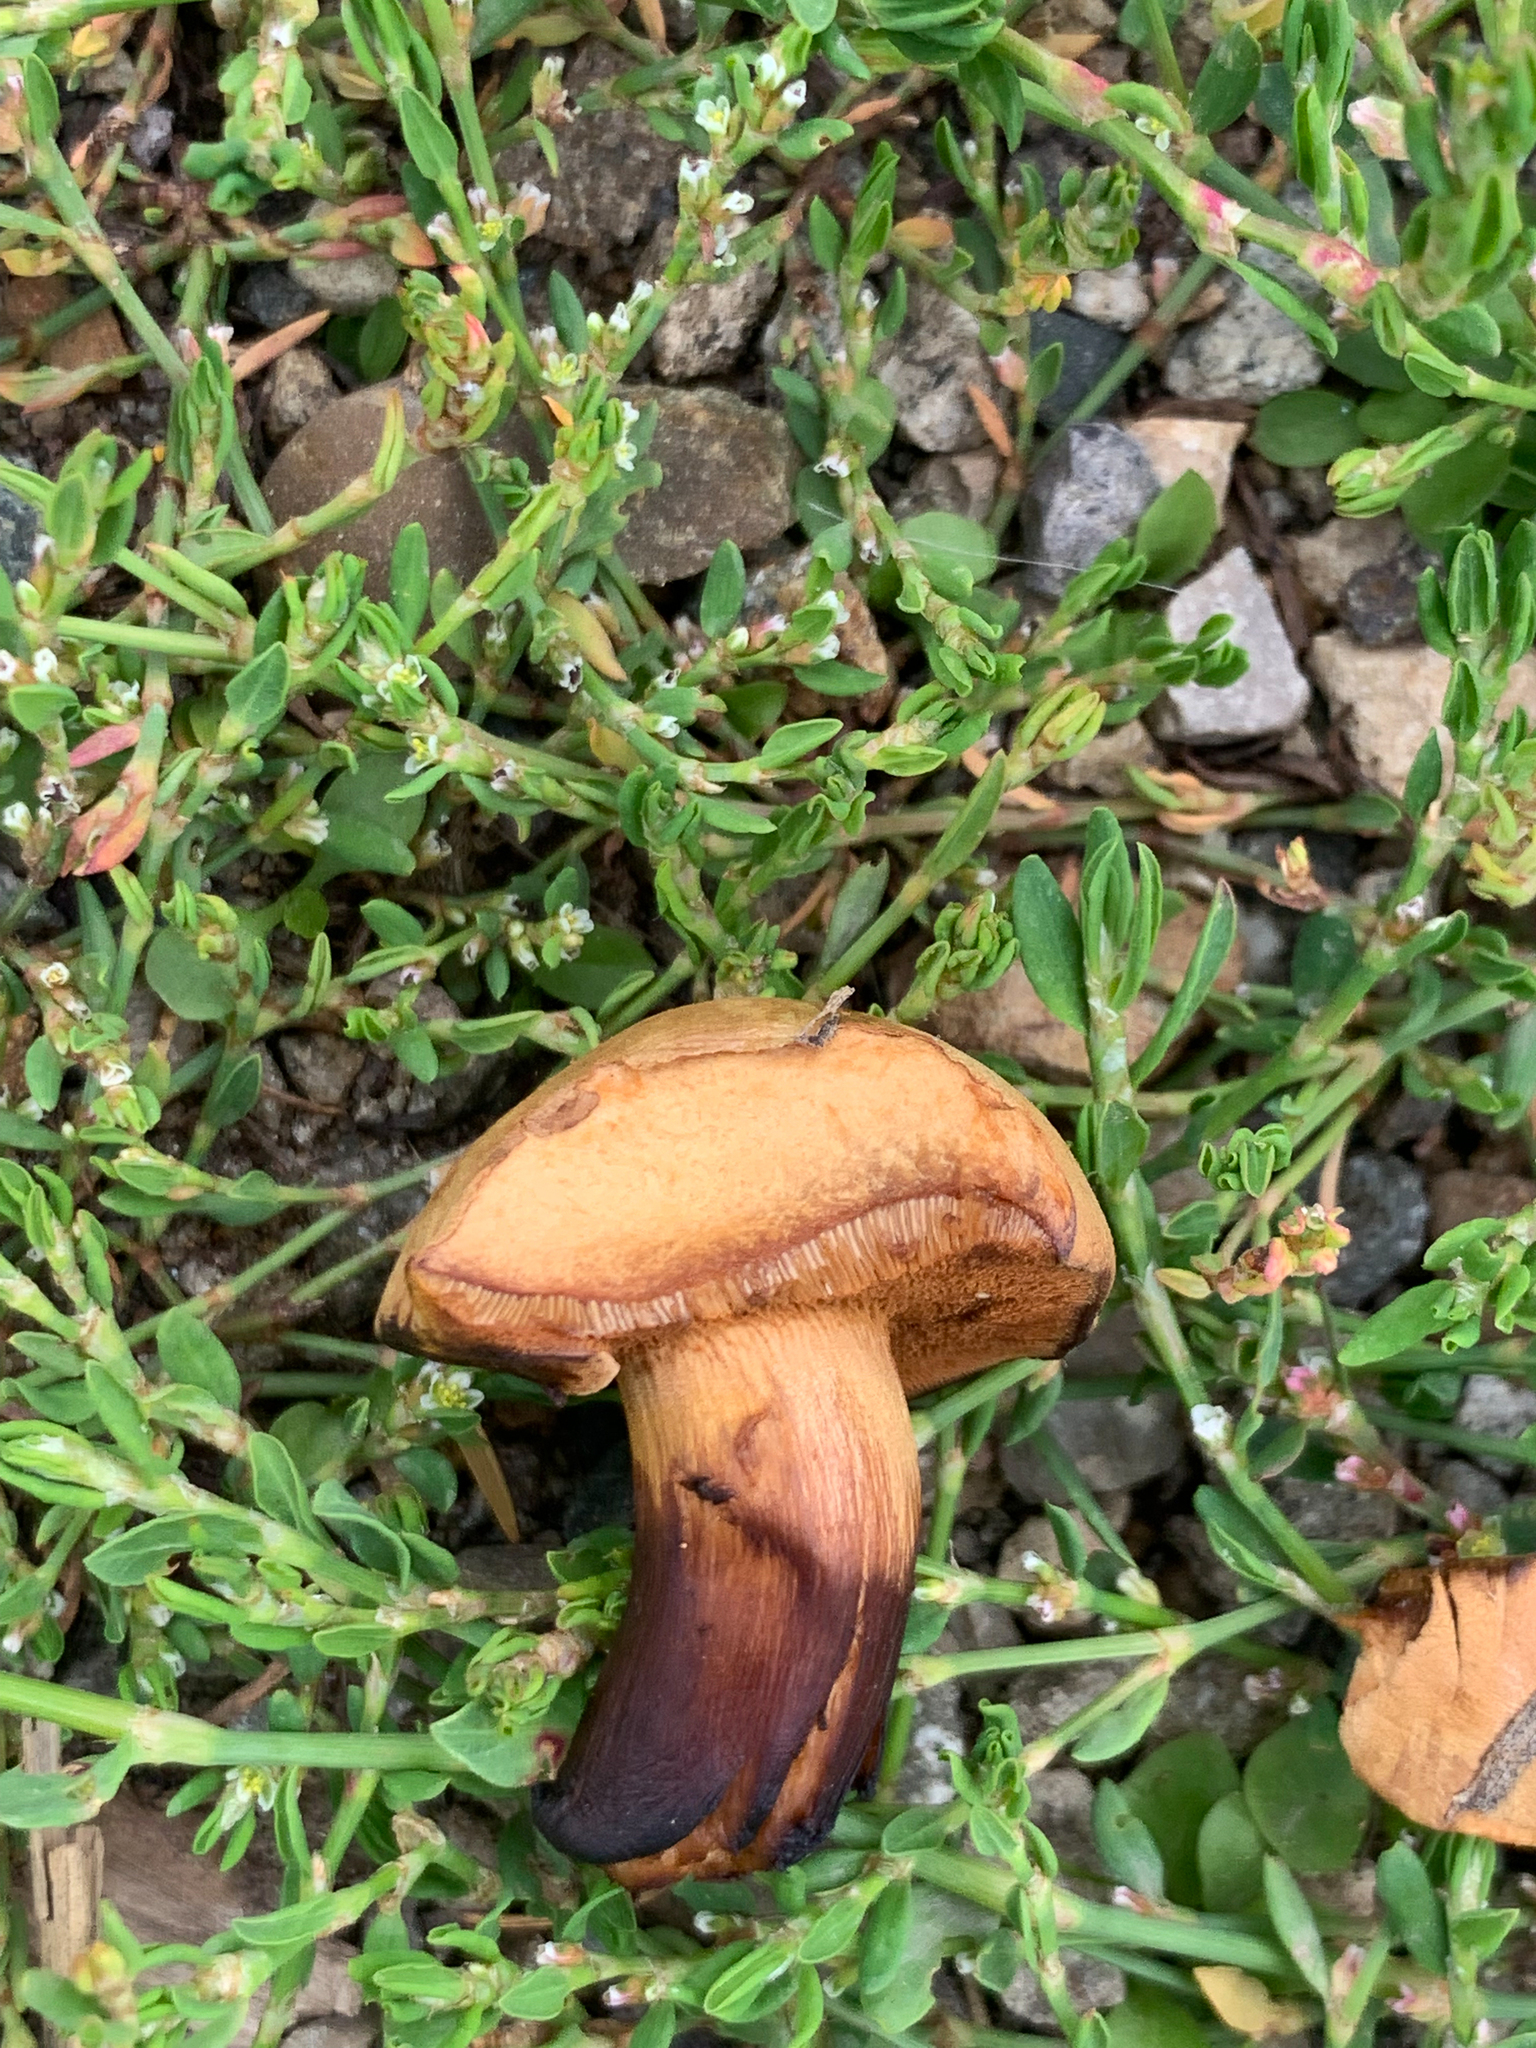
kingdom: Fungi
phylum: Basidiomycota
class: Agaricomycetes
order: Boletales
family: Boletaceae
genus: Chalciporus
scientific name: Chalciporus piperatus
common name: Peppery bolete
